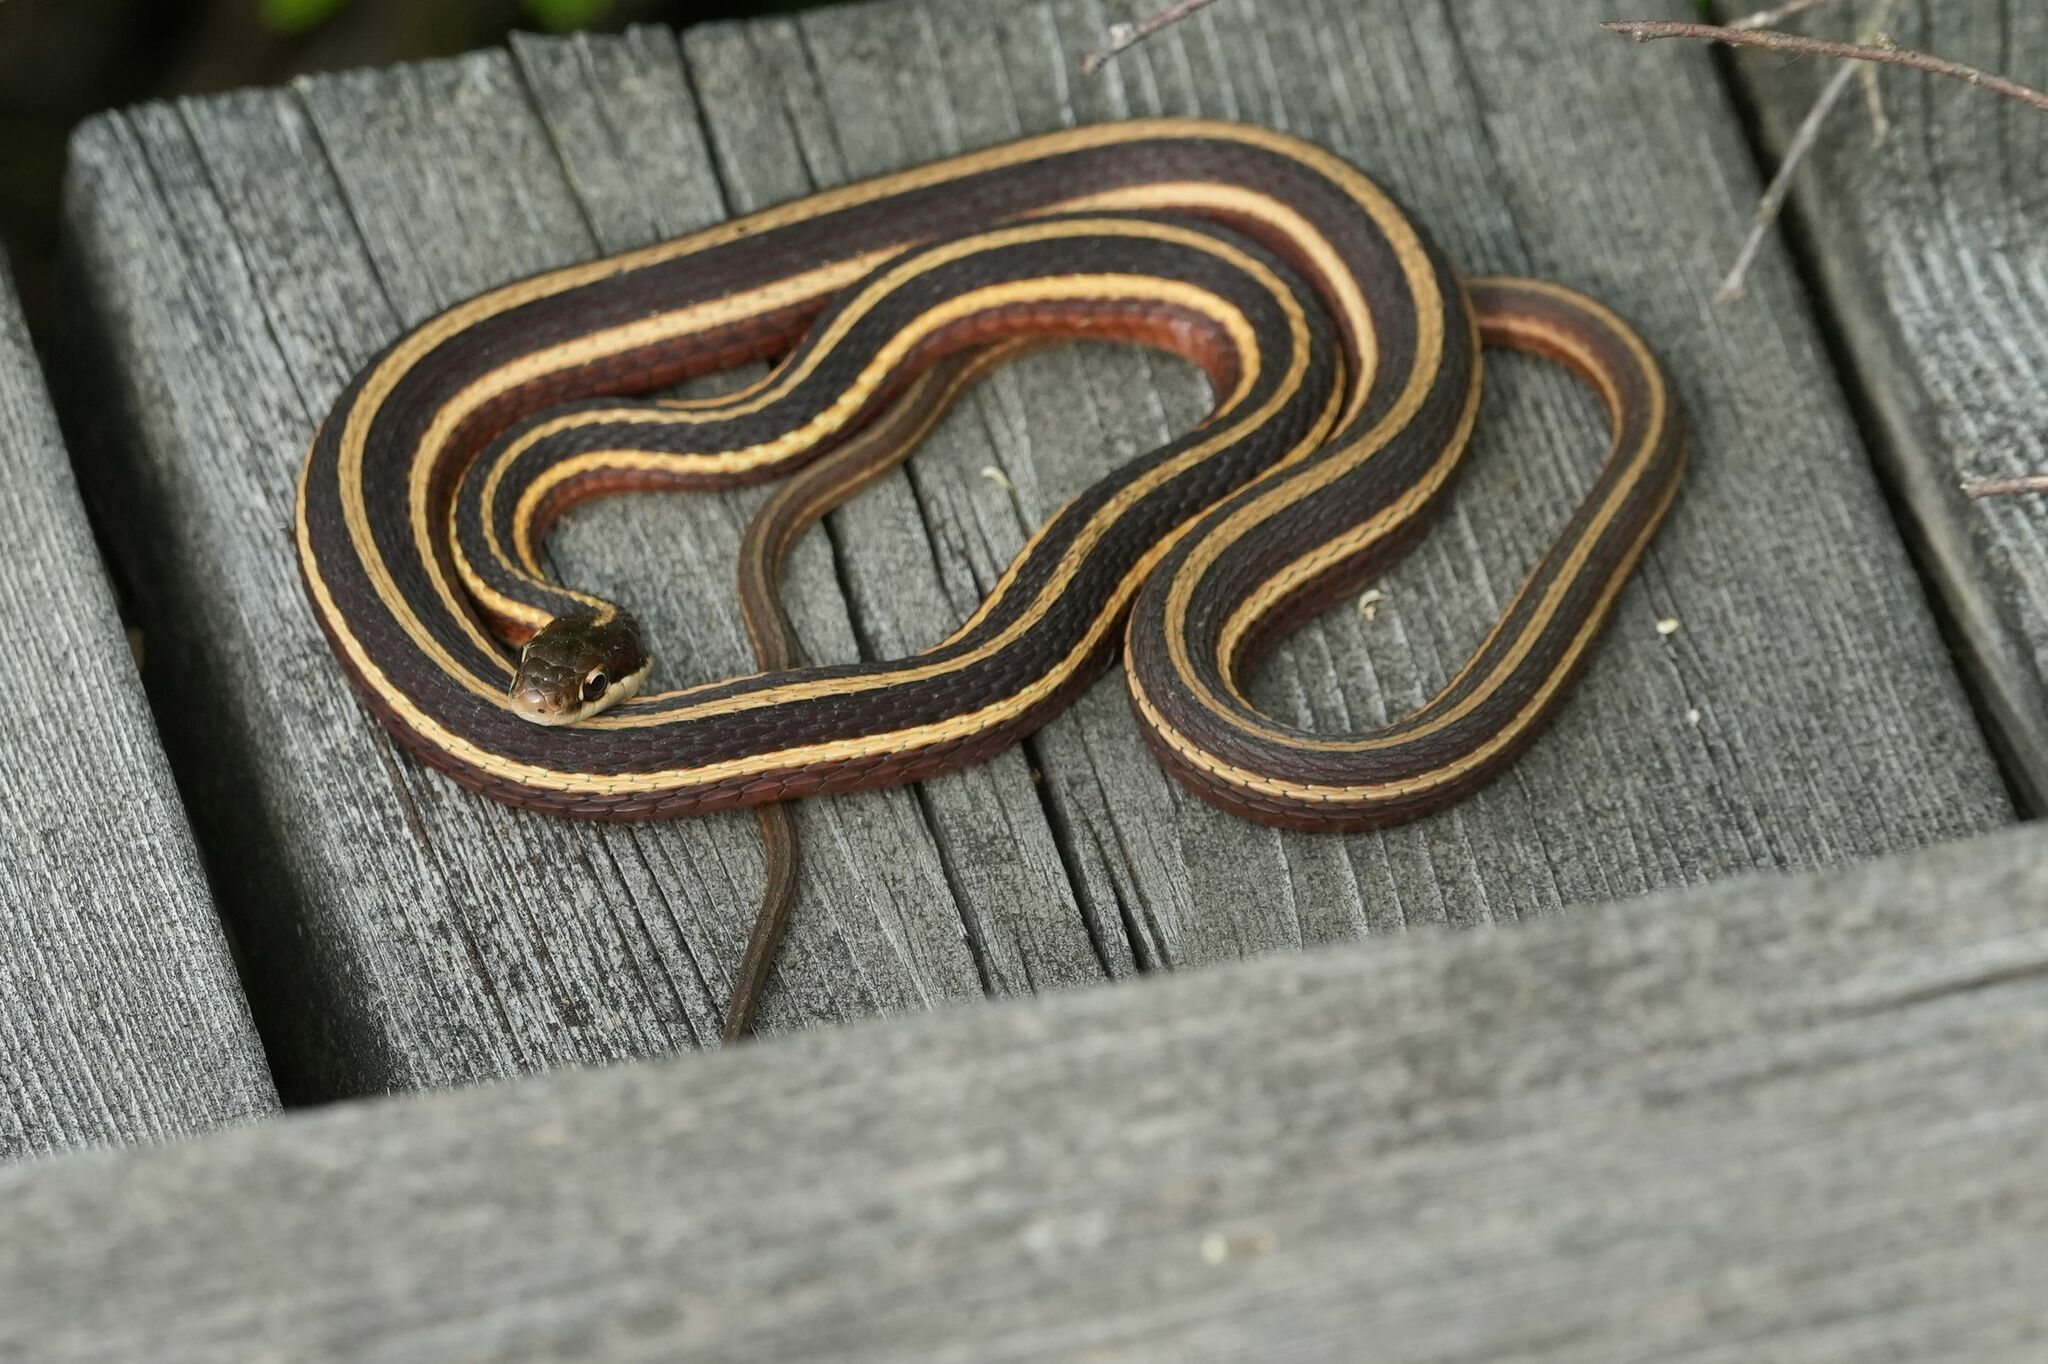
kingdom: Animalia
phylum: Chordata
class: Squamata
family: Colubridae
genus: Thamnophis
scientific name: Thamnophis saurita
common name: Eastern ribbonsnake
